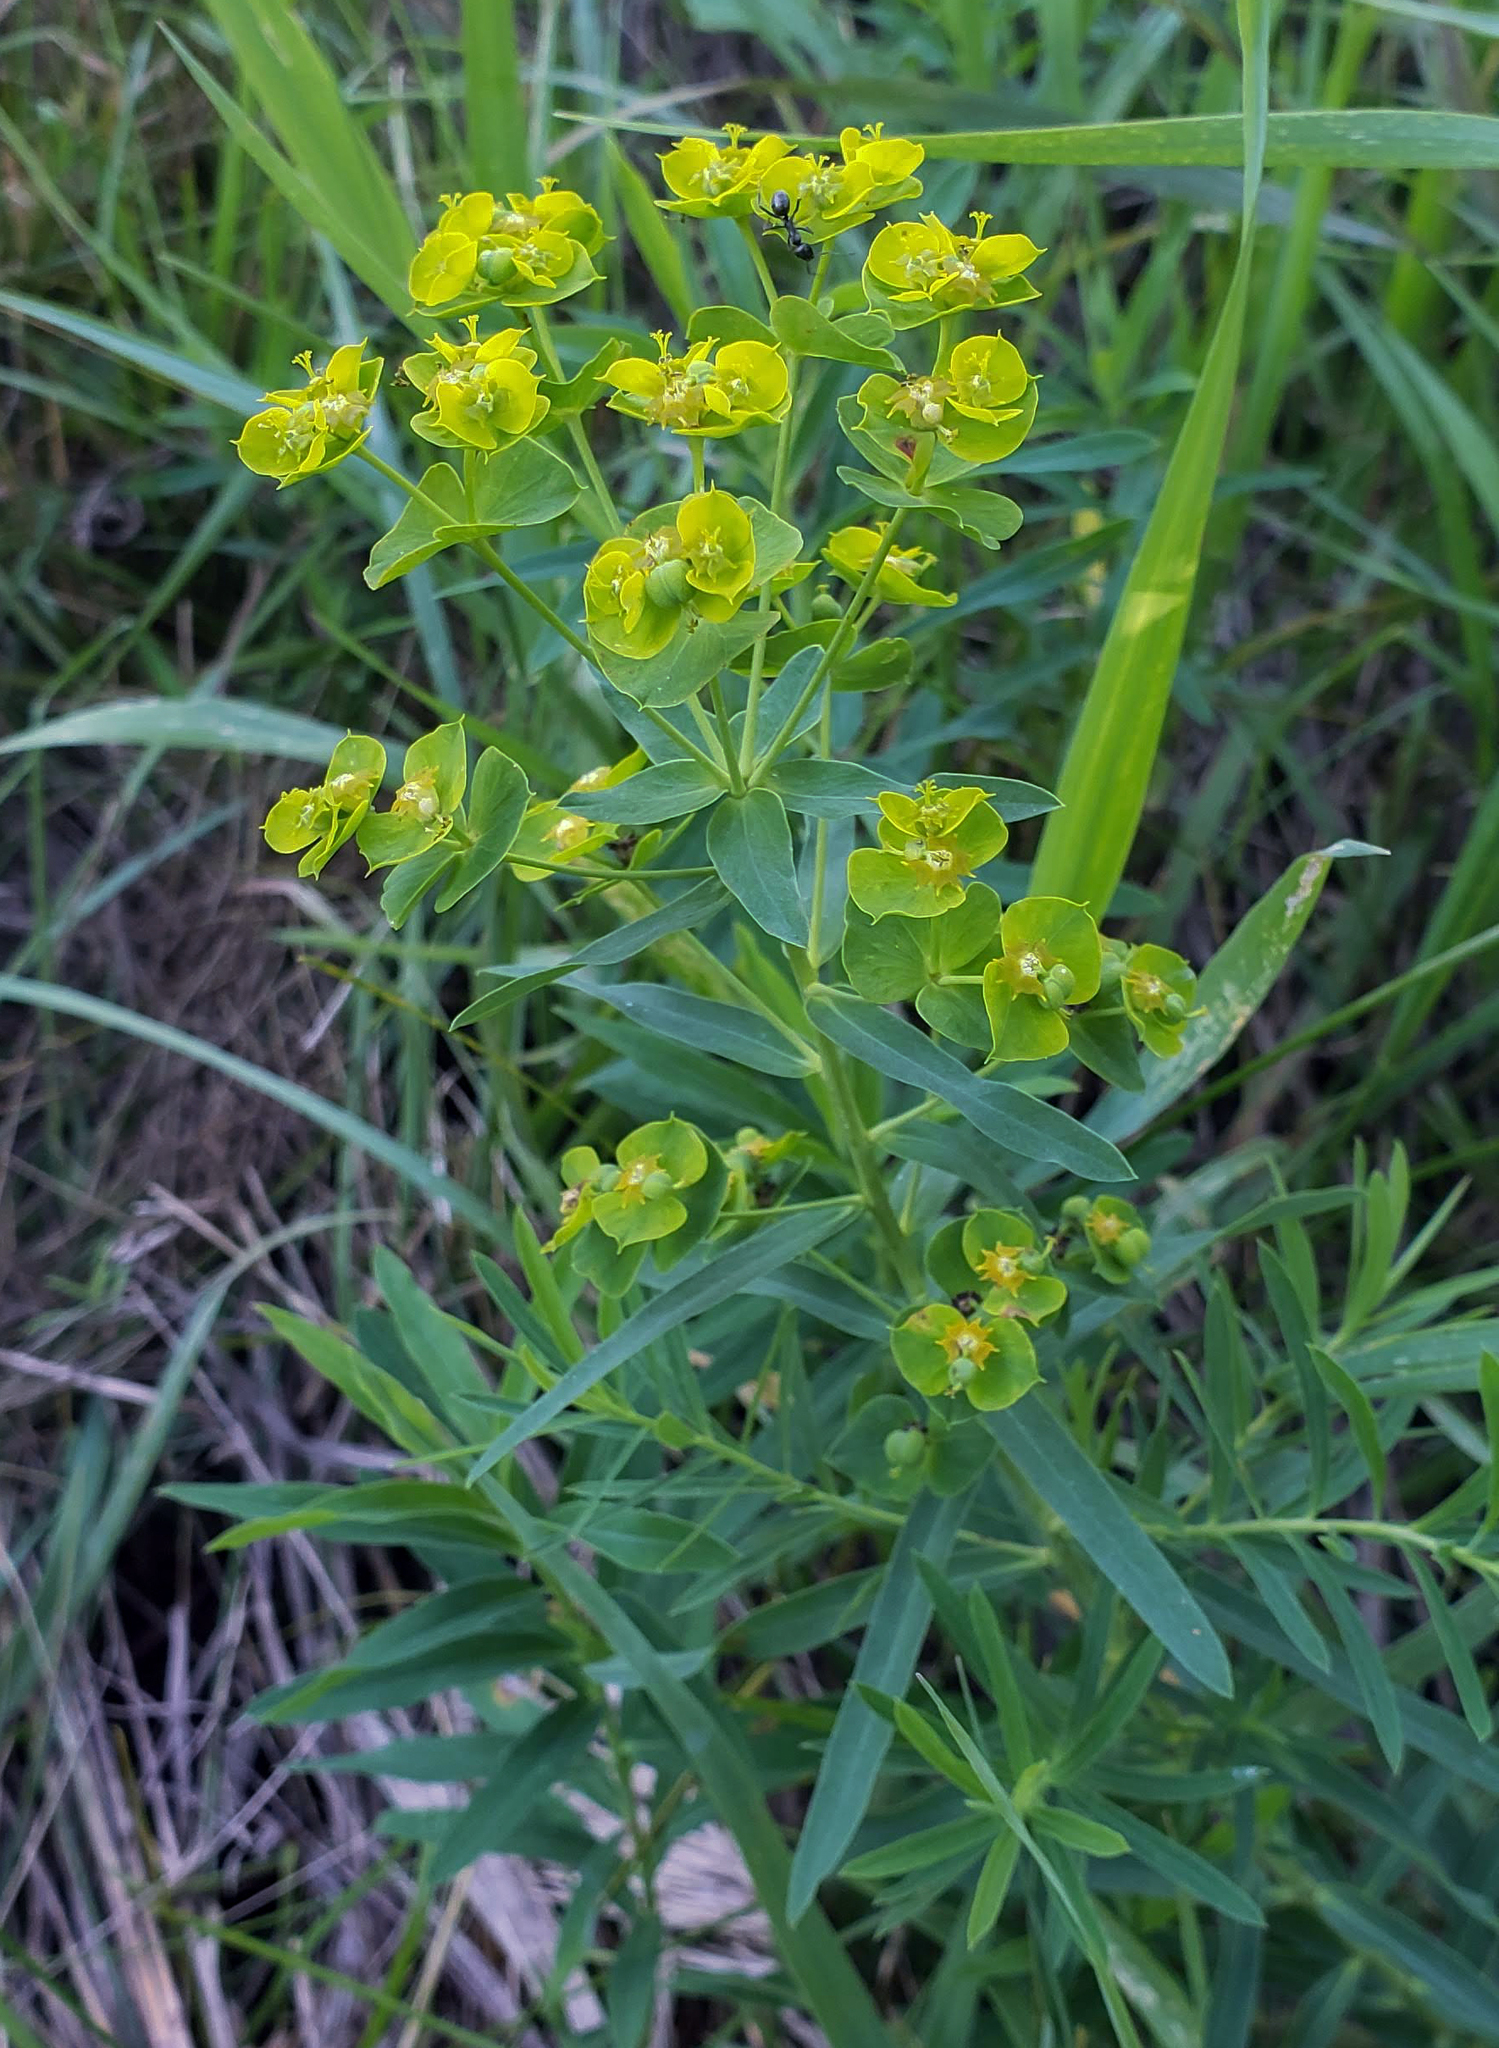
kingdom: Plantae
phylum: Tracheophyta
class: Magnoliopsida
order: Malpighiales
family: Euphorbiaceae
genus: Euphorbia
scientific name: Euphorbia virgata
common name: Leafy spurge
